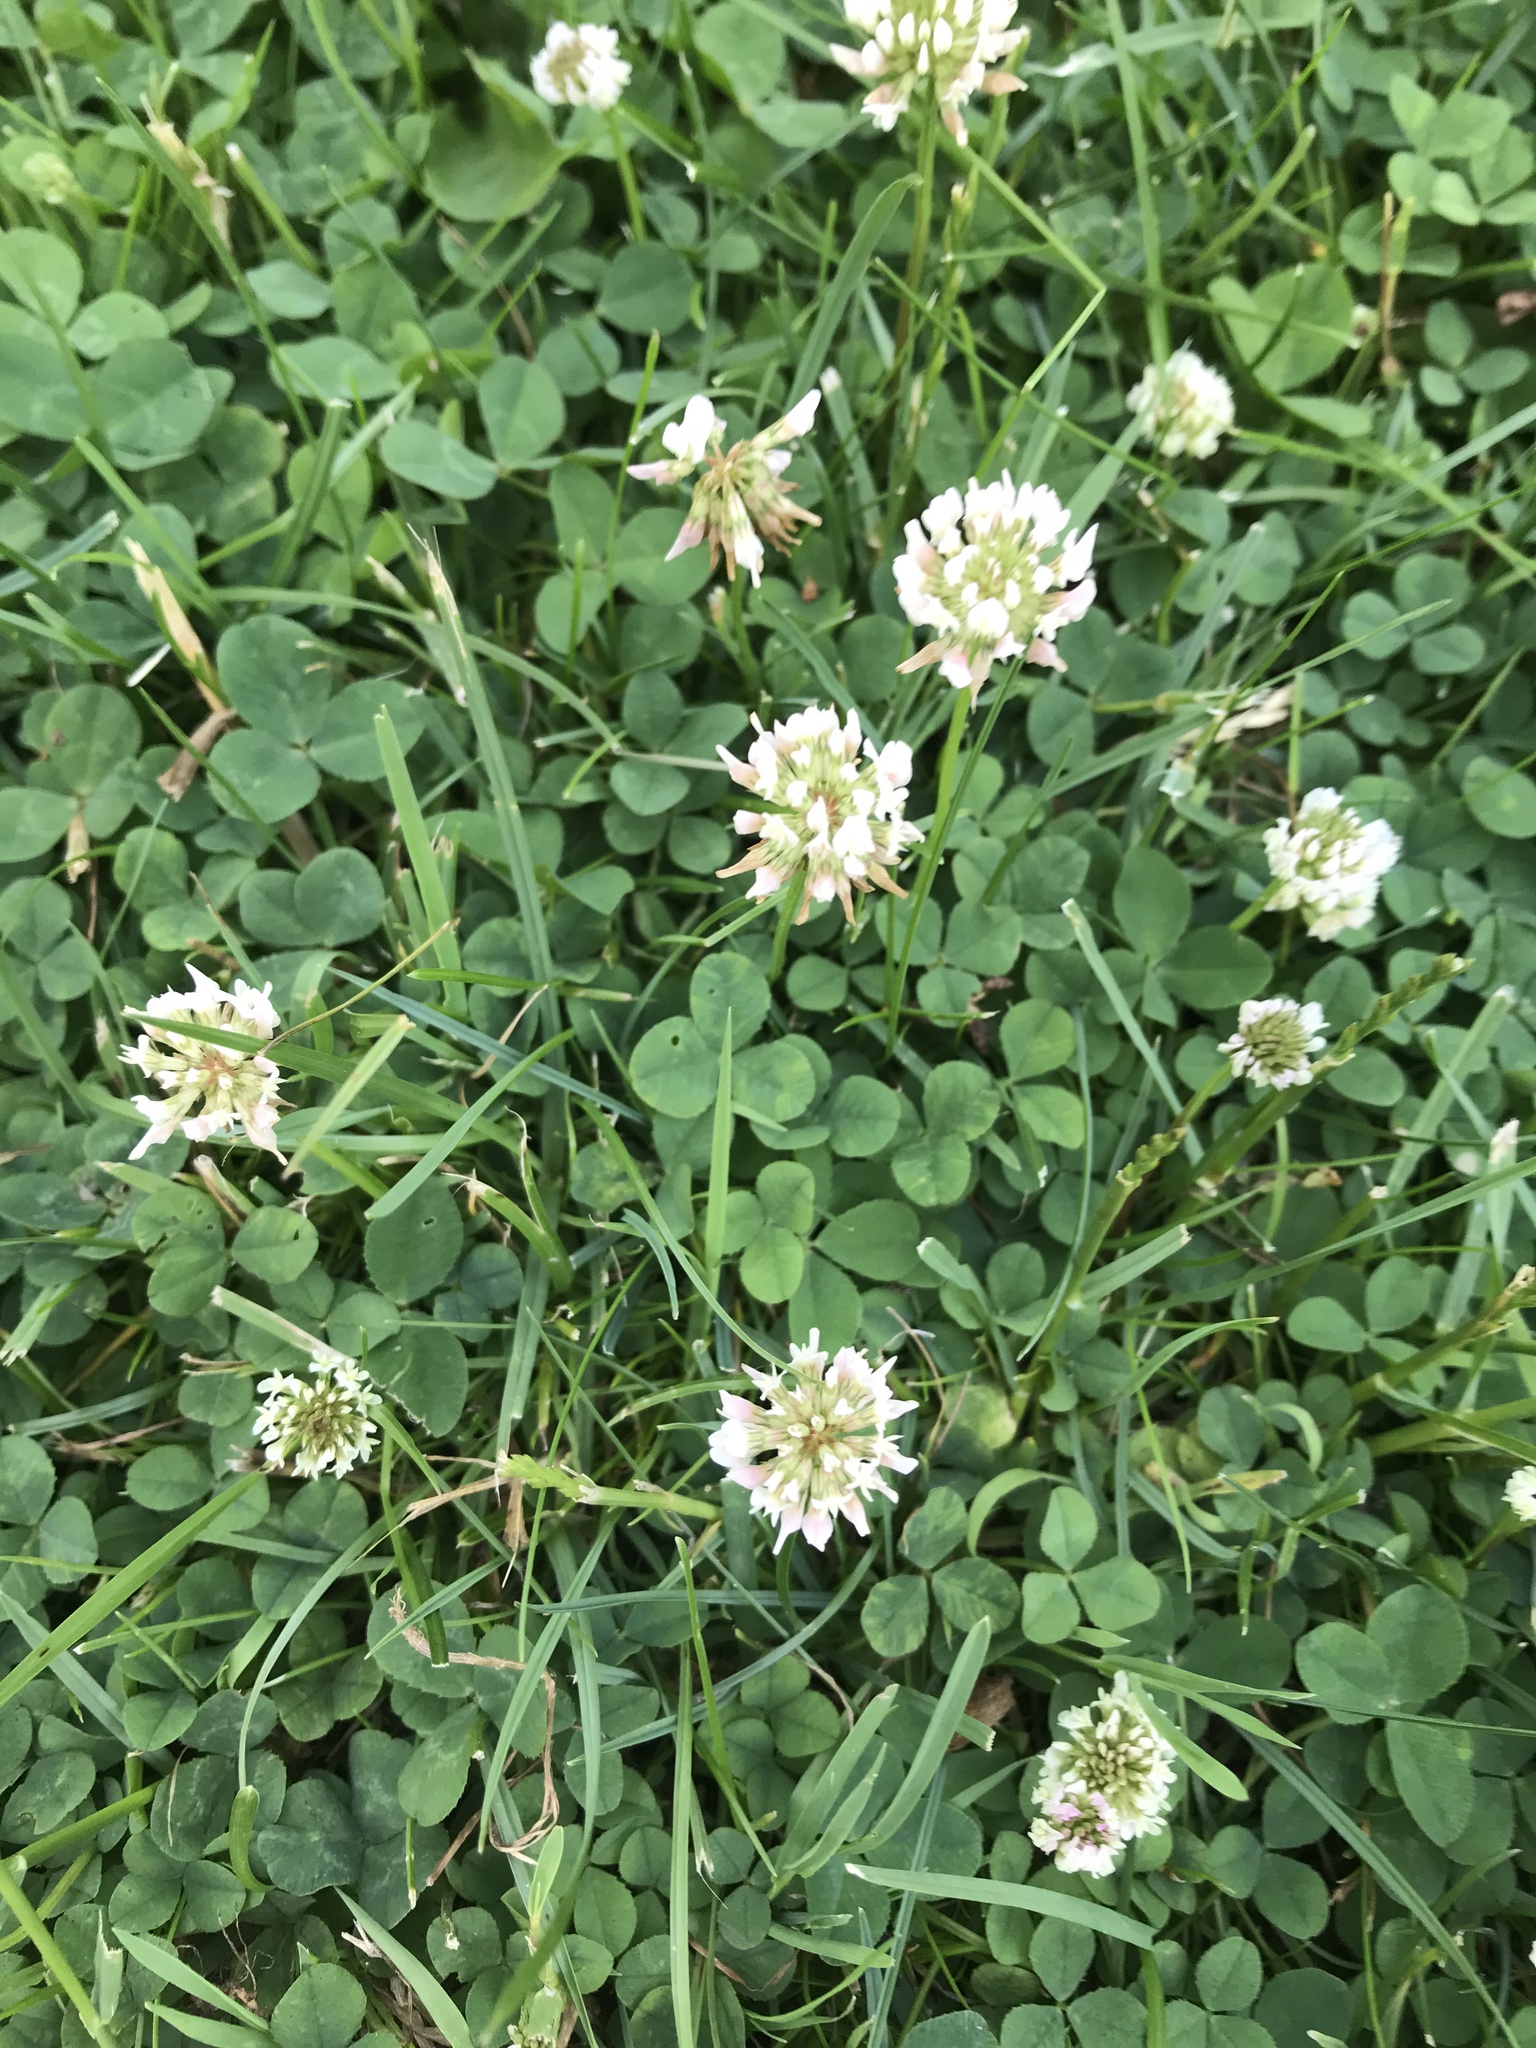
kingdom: Plantae
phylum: Tracheophyta
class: Magnoliopsida
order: Fabales
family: Fabaceae
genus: Trifolium
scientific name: Trifolium repens
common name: White clover
